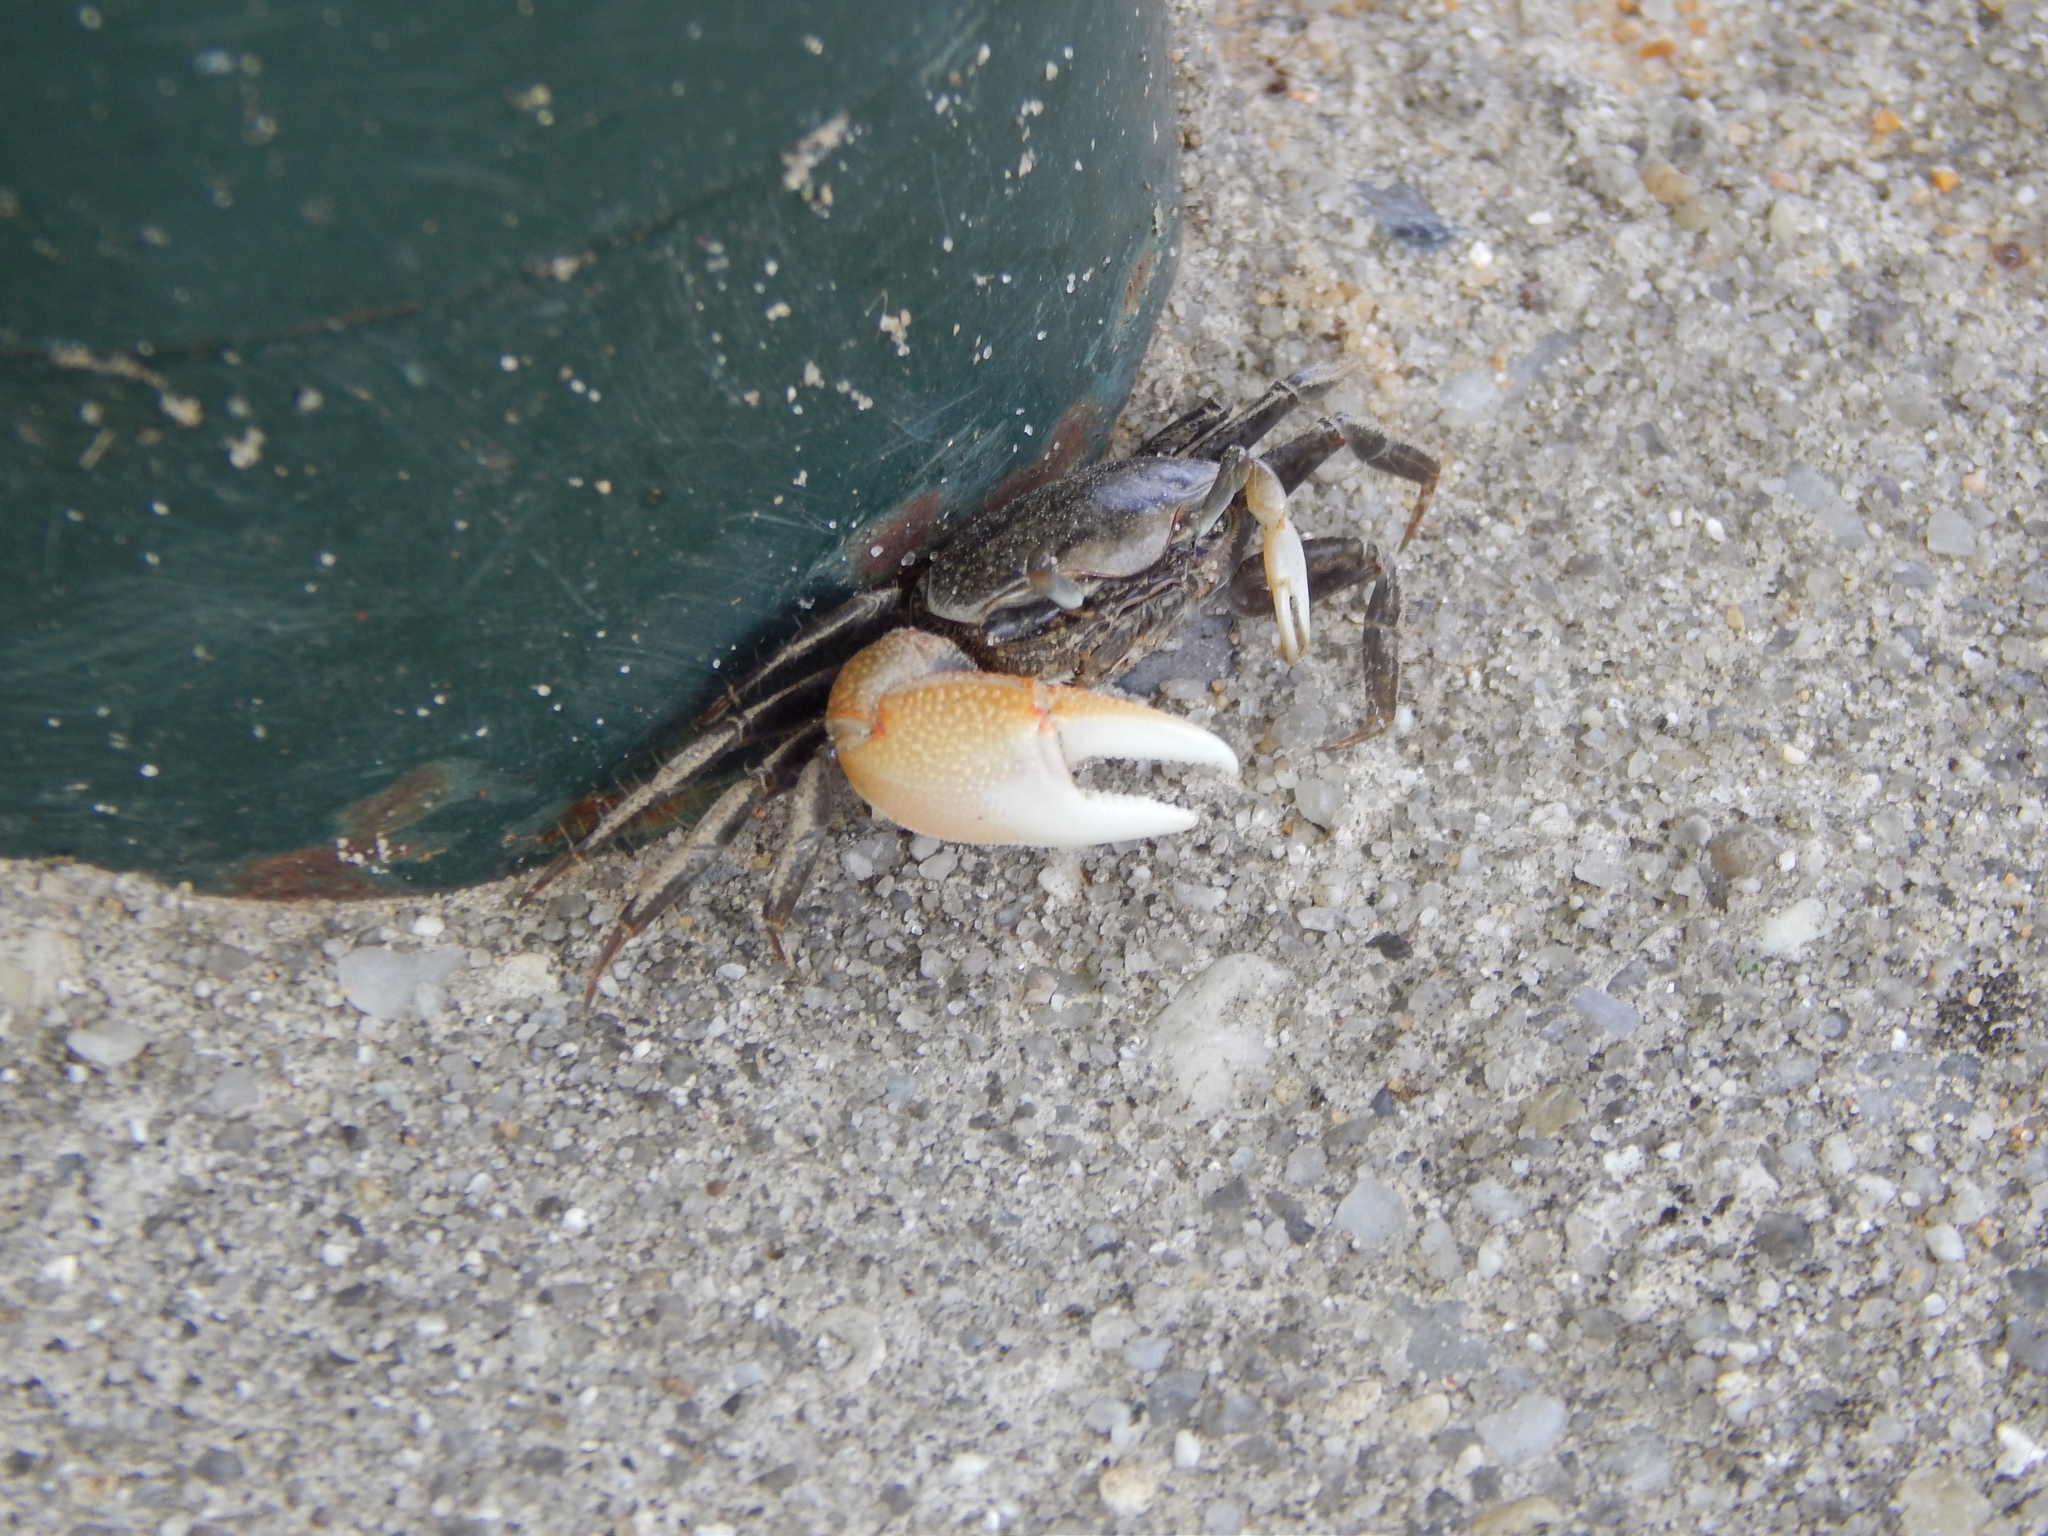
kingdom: Animalia
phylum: Arthropoda
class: Malacostraca
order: Decapoda
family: Ocypodidae
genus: Minuca
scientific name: Minuca minax
